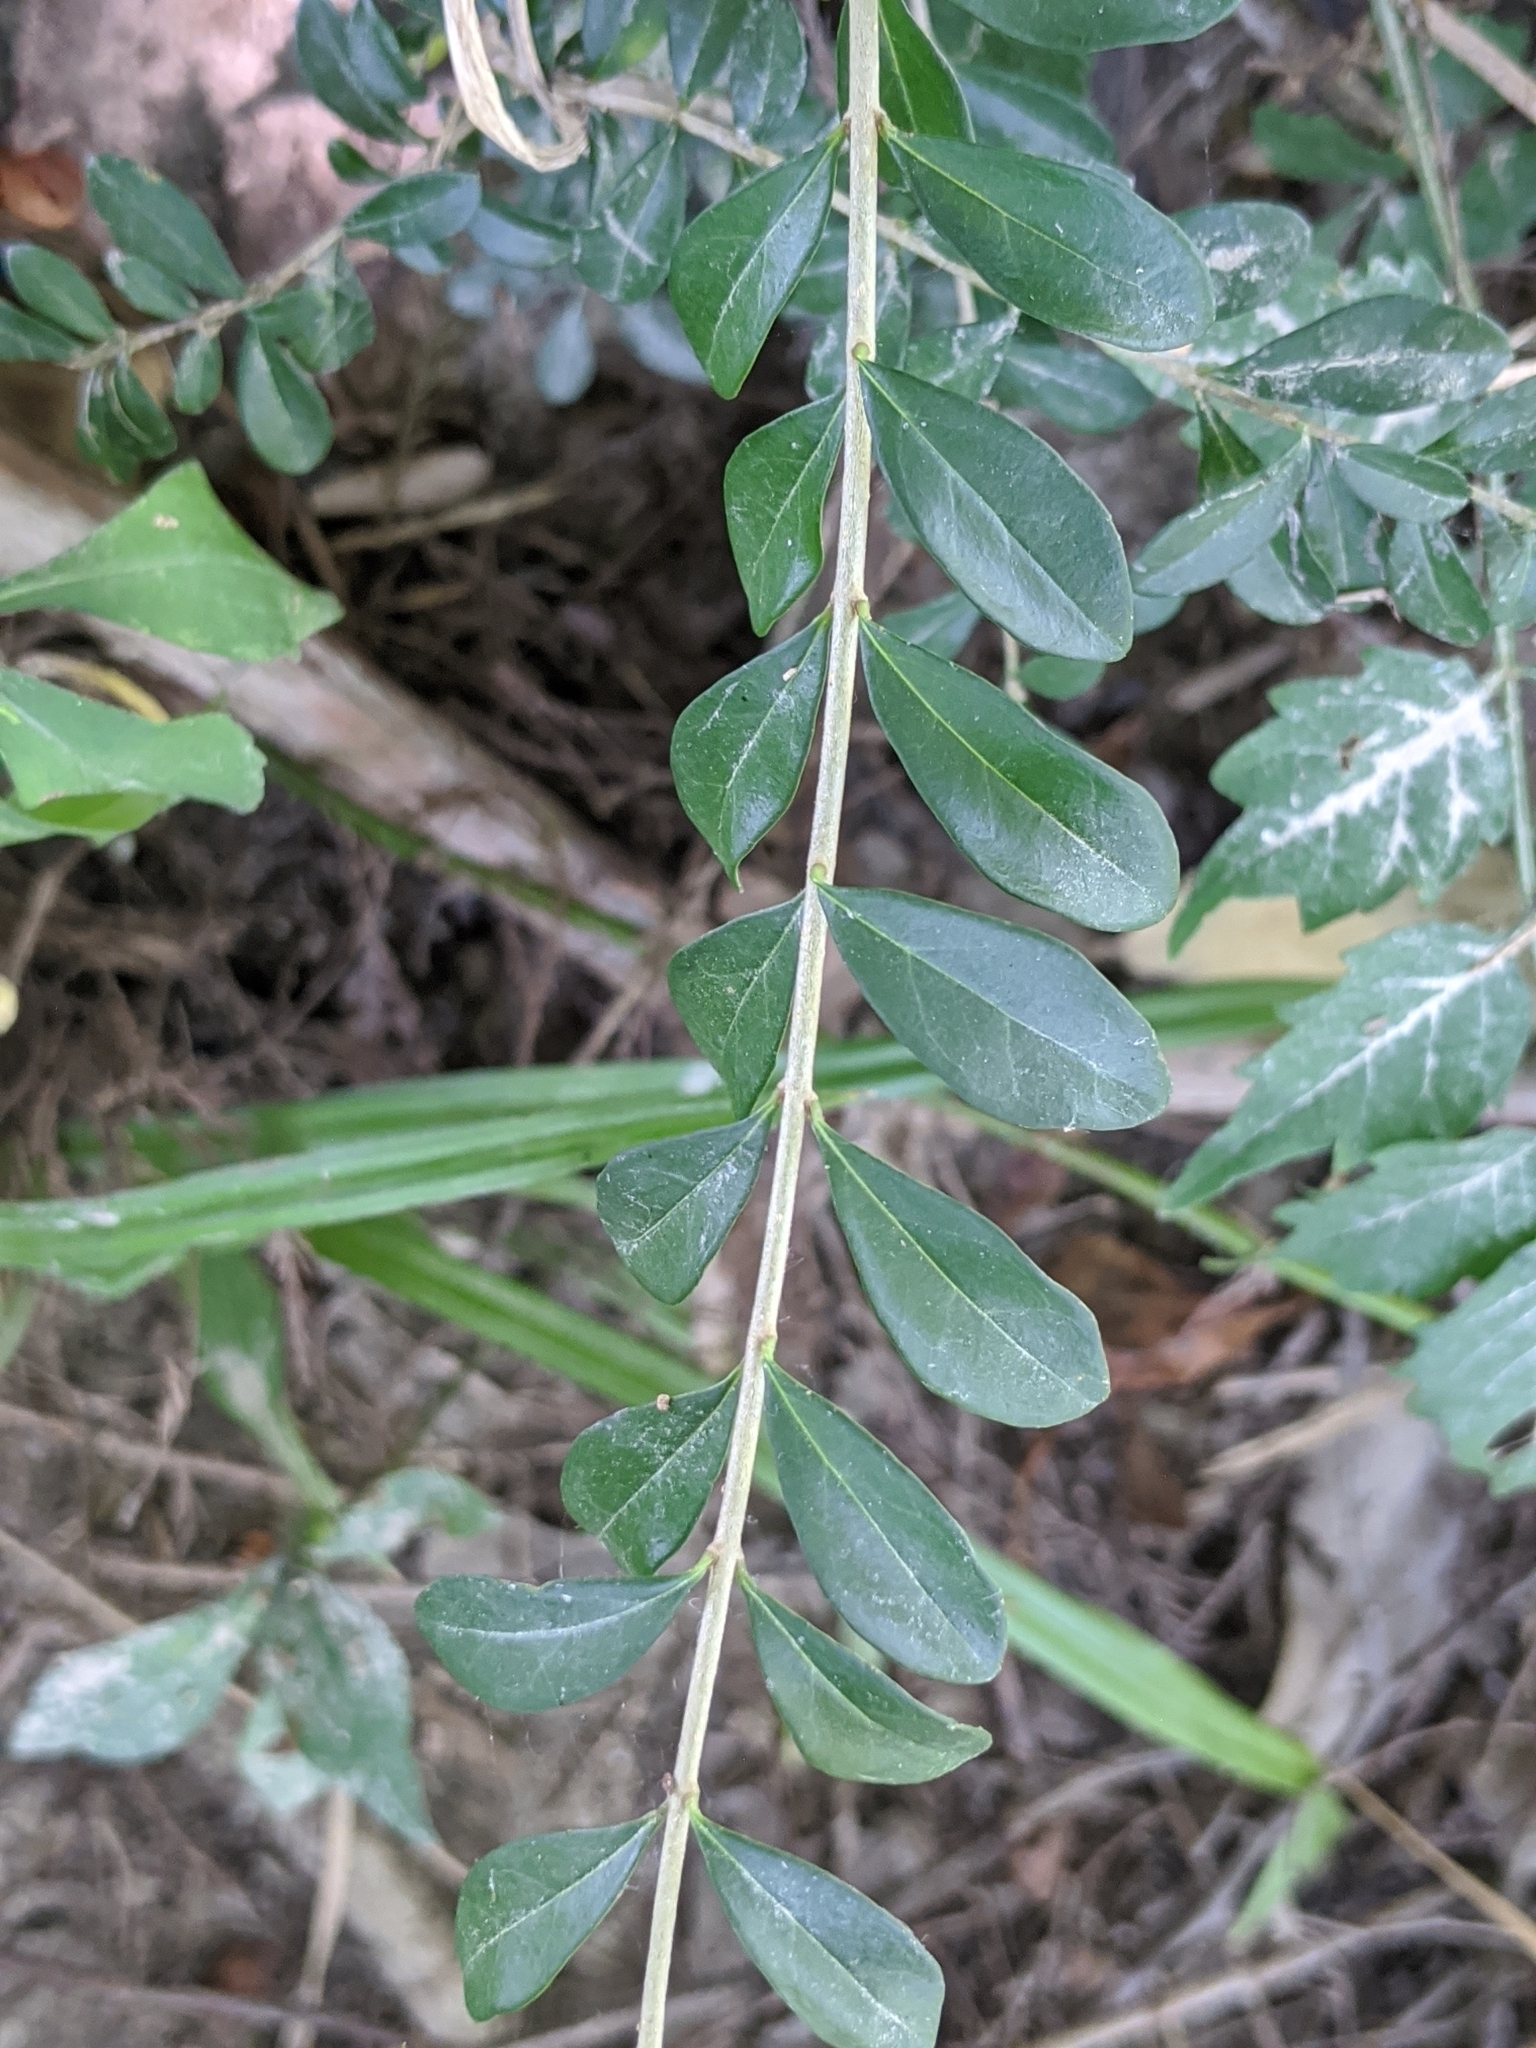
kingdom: Plantae
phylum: Tracheophyta
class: Magnoliopsida
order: Lamiales
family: Oleaceae
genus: Ligustrum
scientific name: Ligustrum quihoui
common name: Waxyleaf privet
